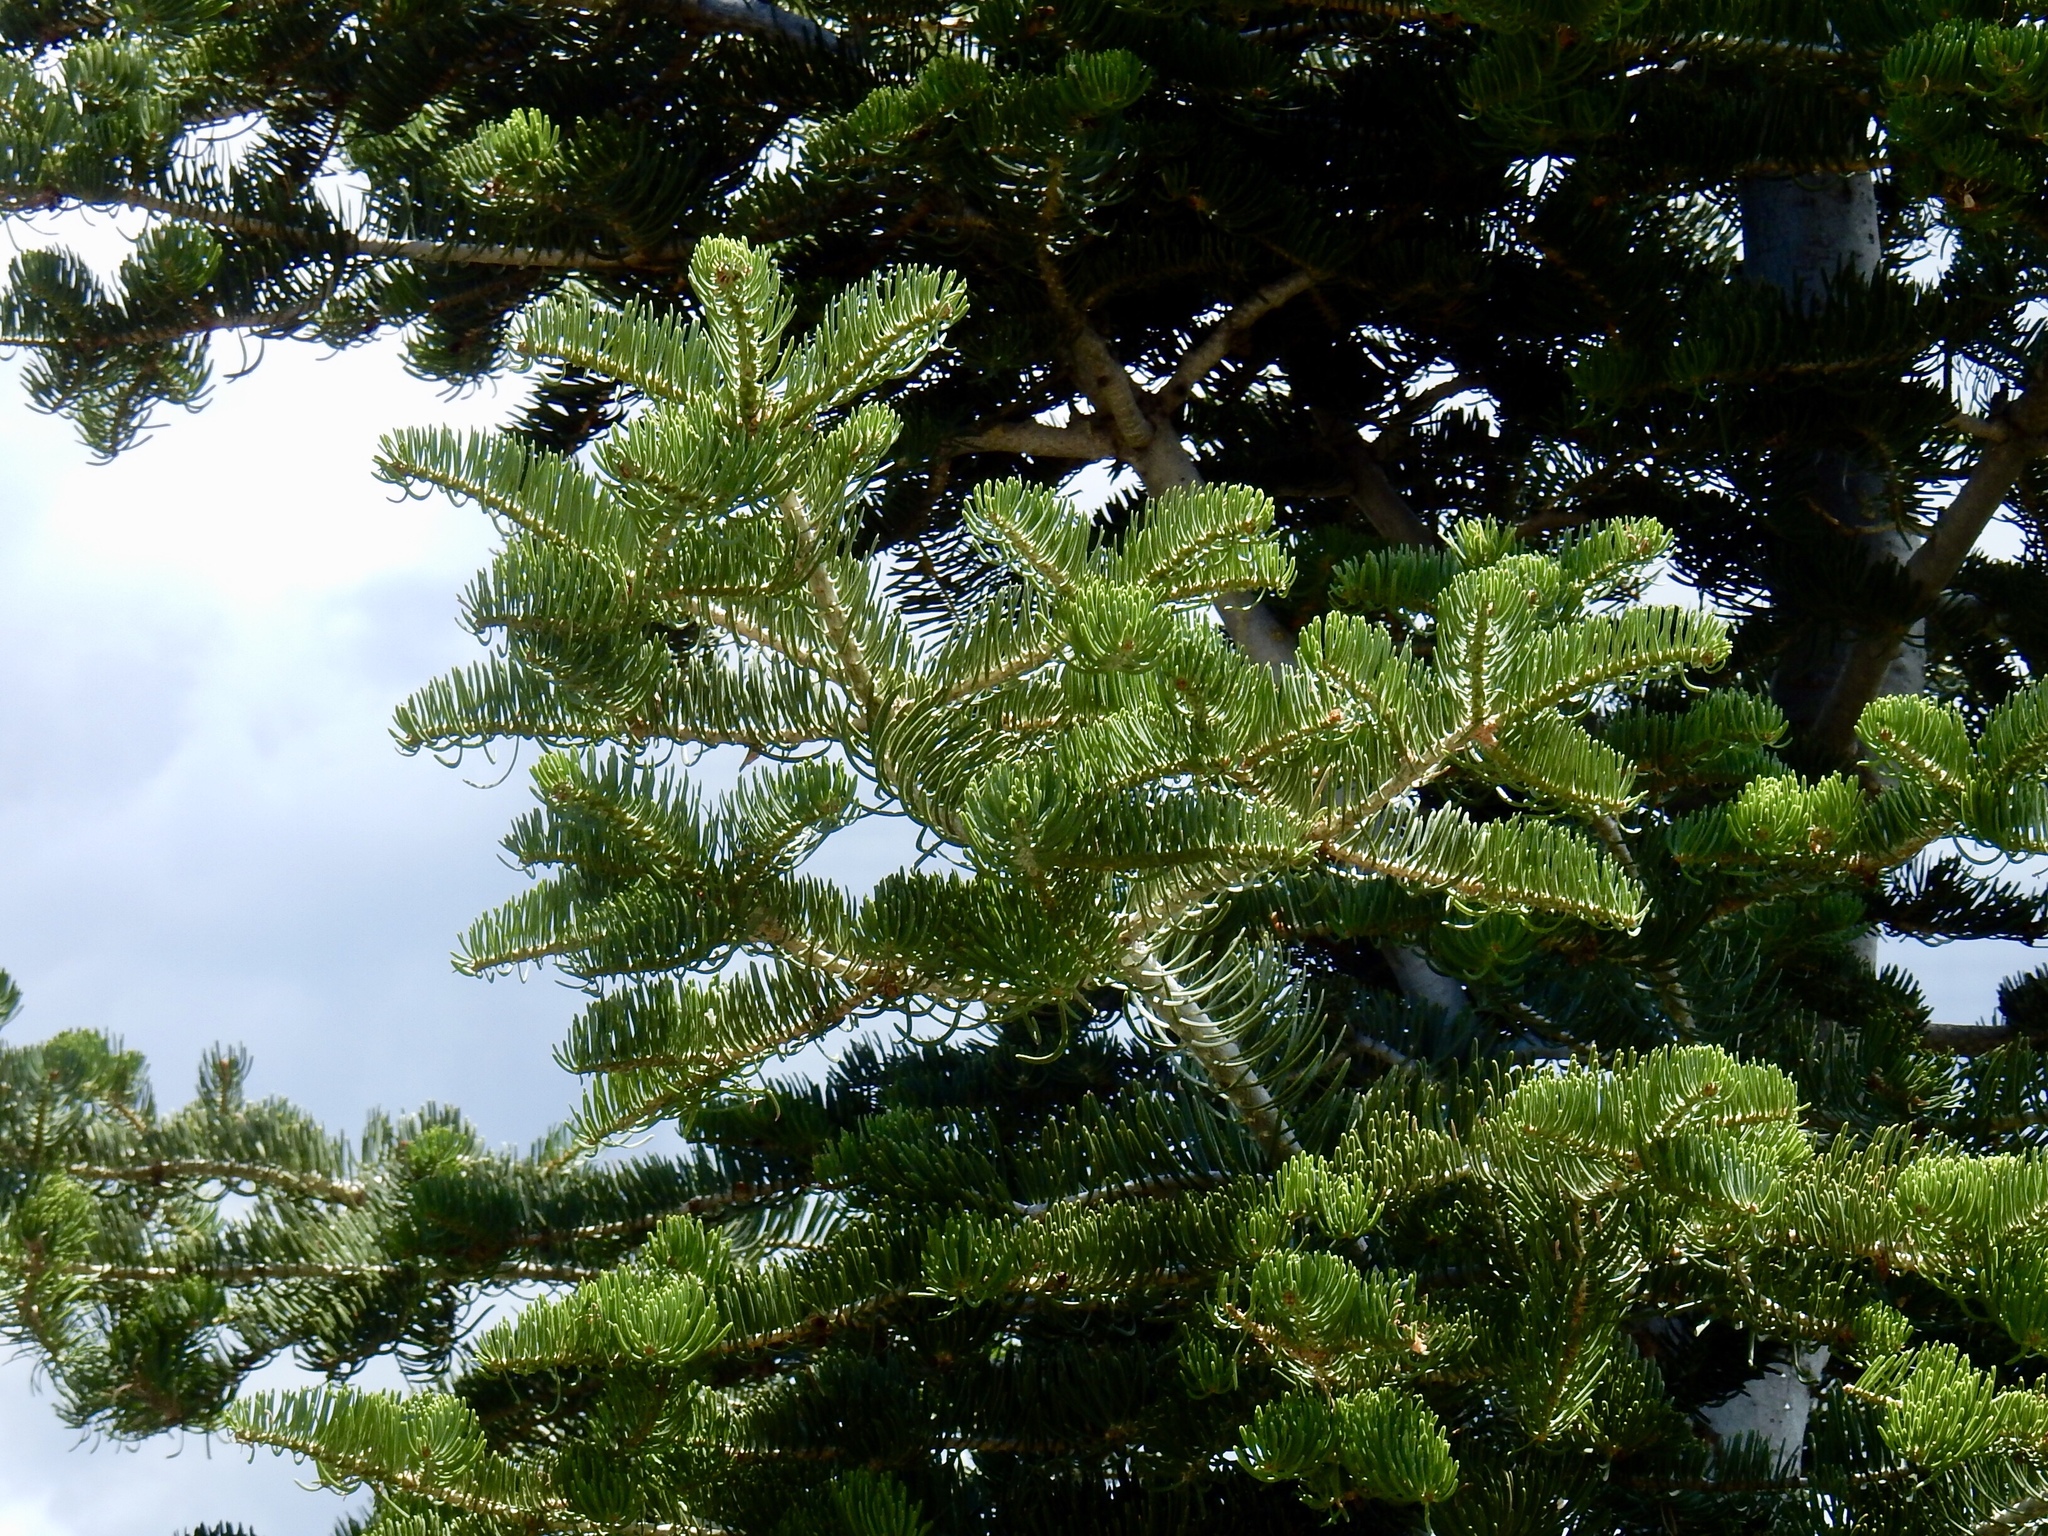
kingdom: Plantae
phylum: Tracheophyta
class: Pinopsida
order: Pinales
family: Pinaceae
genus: Abies
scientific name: Abies concolor
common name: Colorado fir
